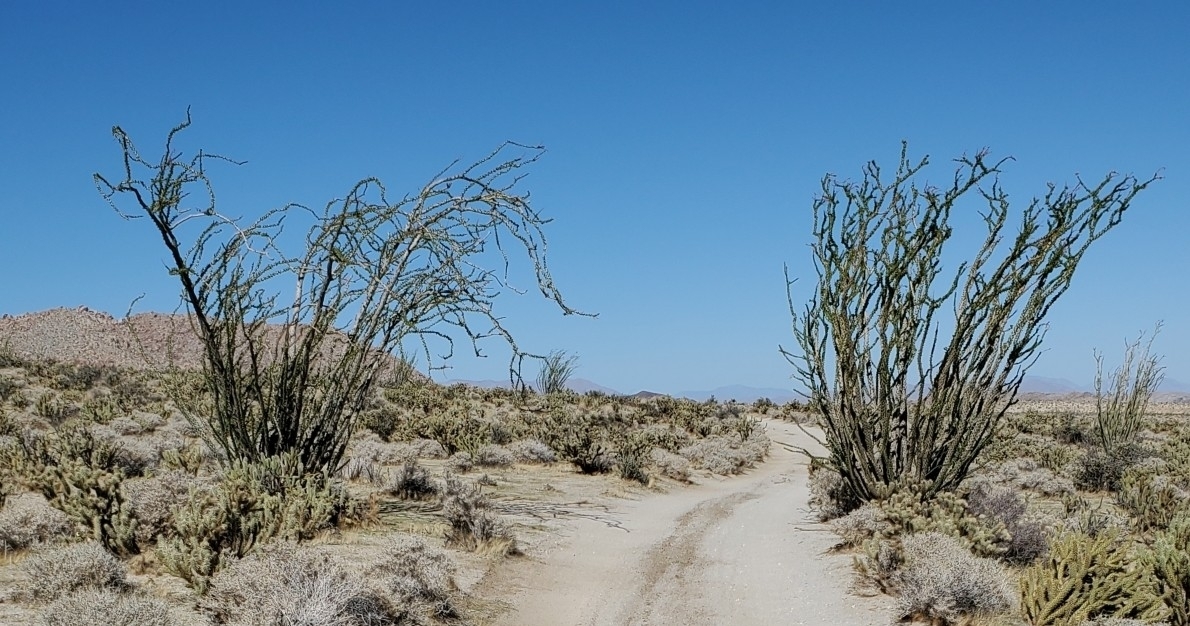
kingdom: Plantae
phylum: Tracheophyta
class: Magnoliopsida
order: Ericales
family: Fouquieriaceae
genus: Fouquieria
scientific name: Fouquieria splendens
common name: Vine-cactus
